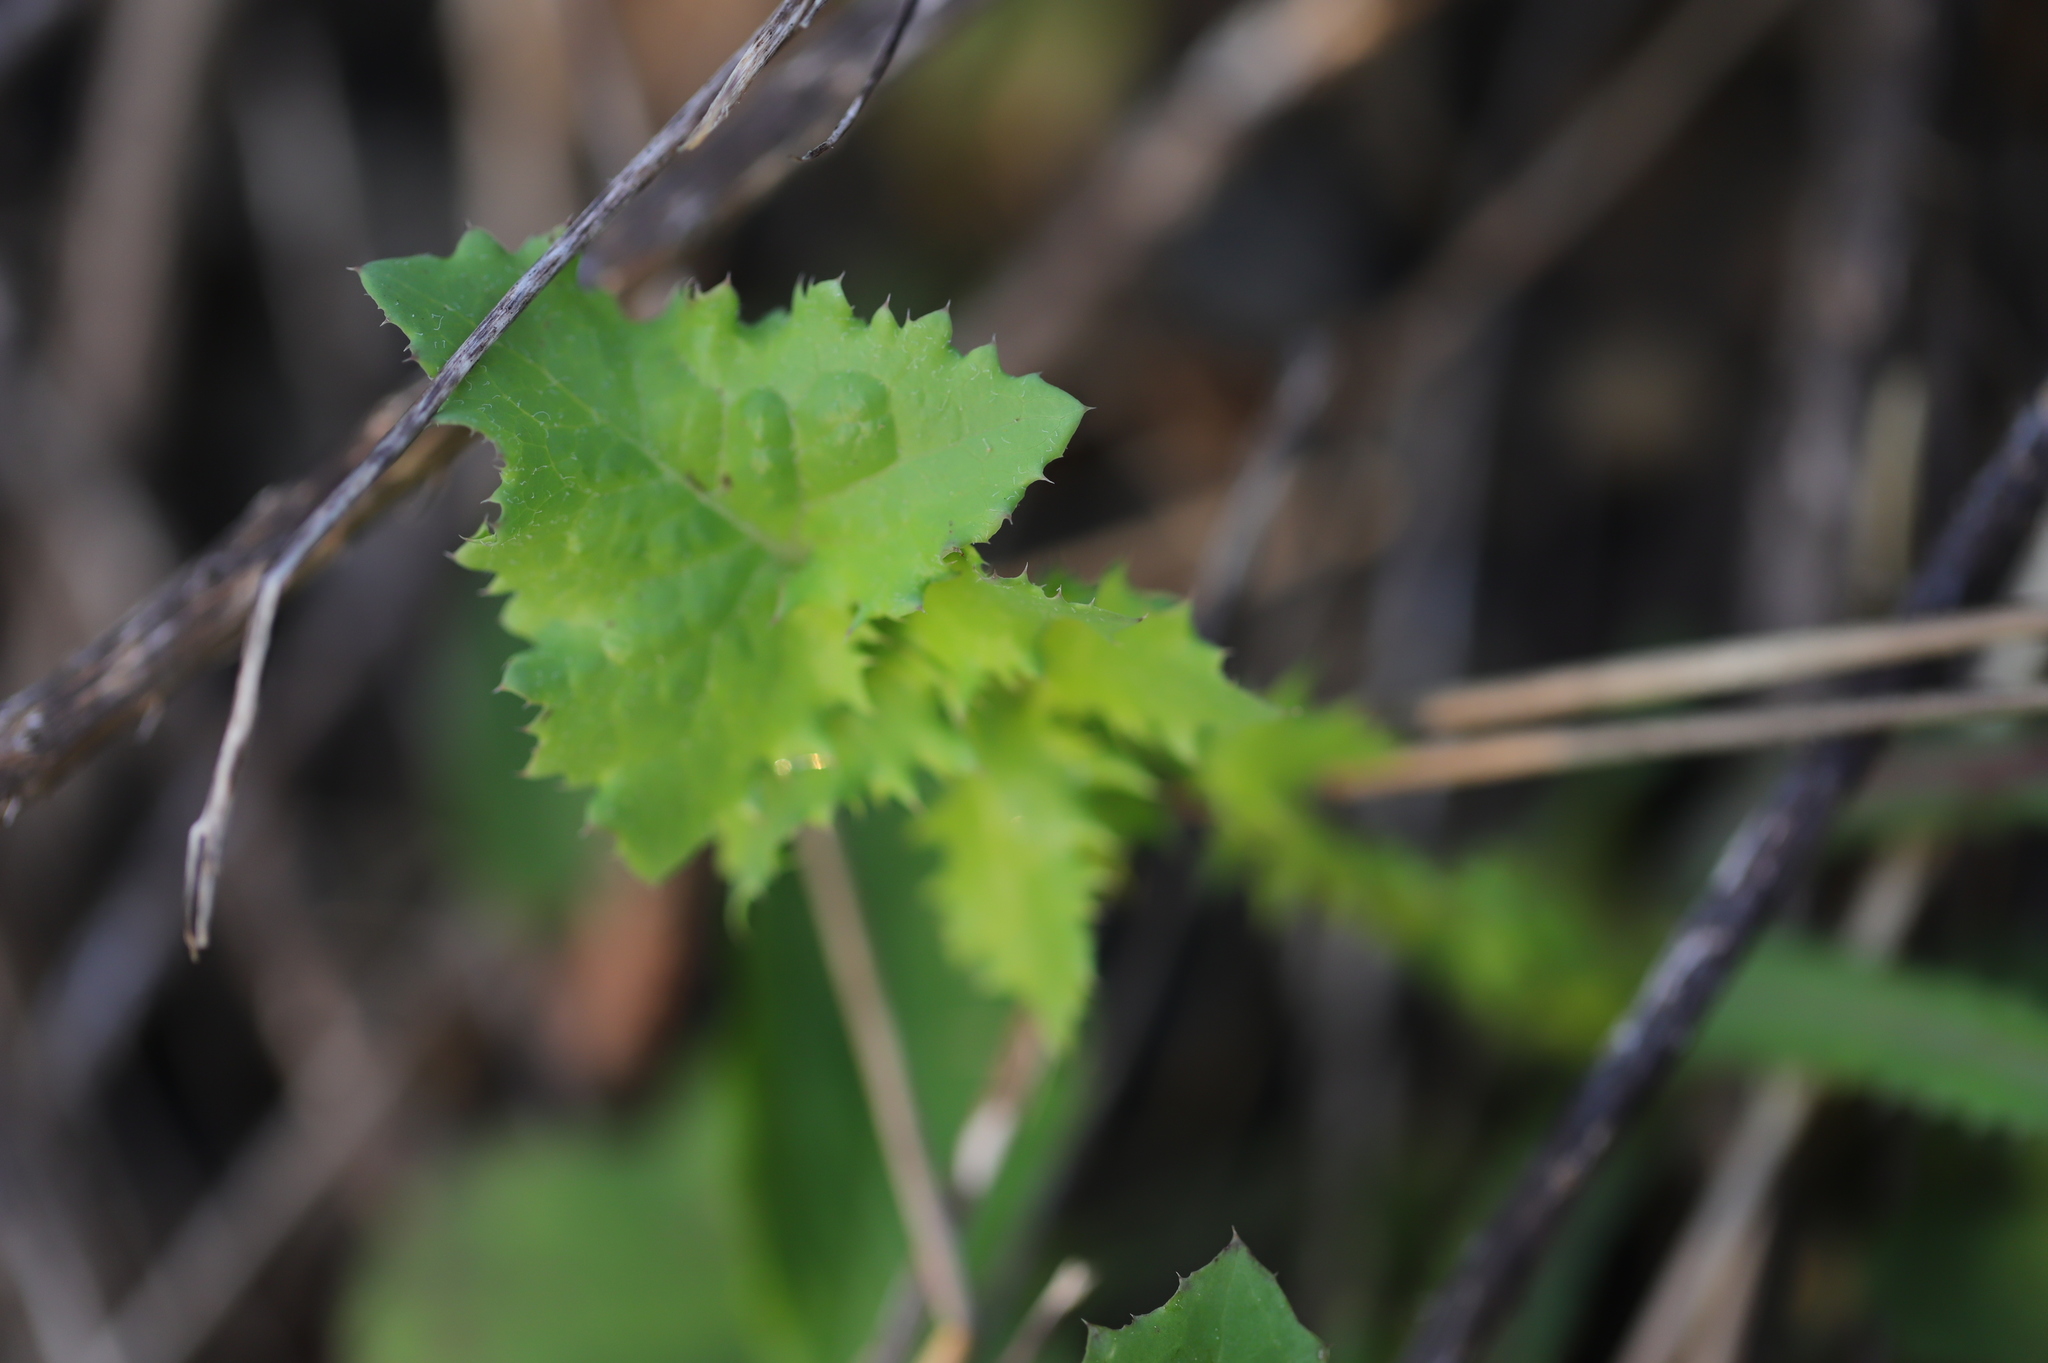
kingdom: Plantae
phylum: Tracheophyta
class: Magnoliopsida
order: Asterales
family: Asteraceae
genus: Sonchus
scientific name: Sonchus oleraceus
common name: Common sowthistle
